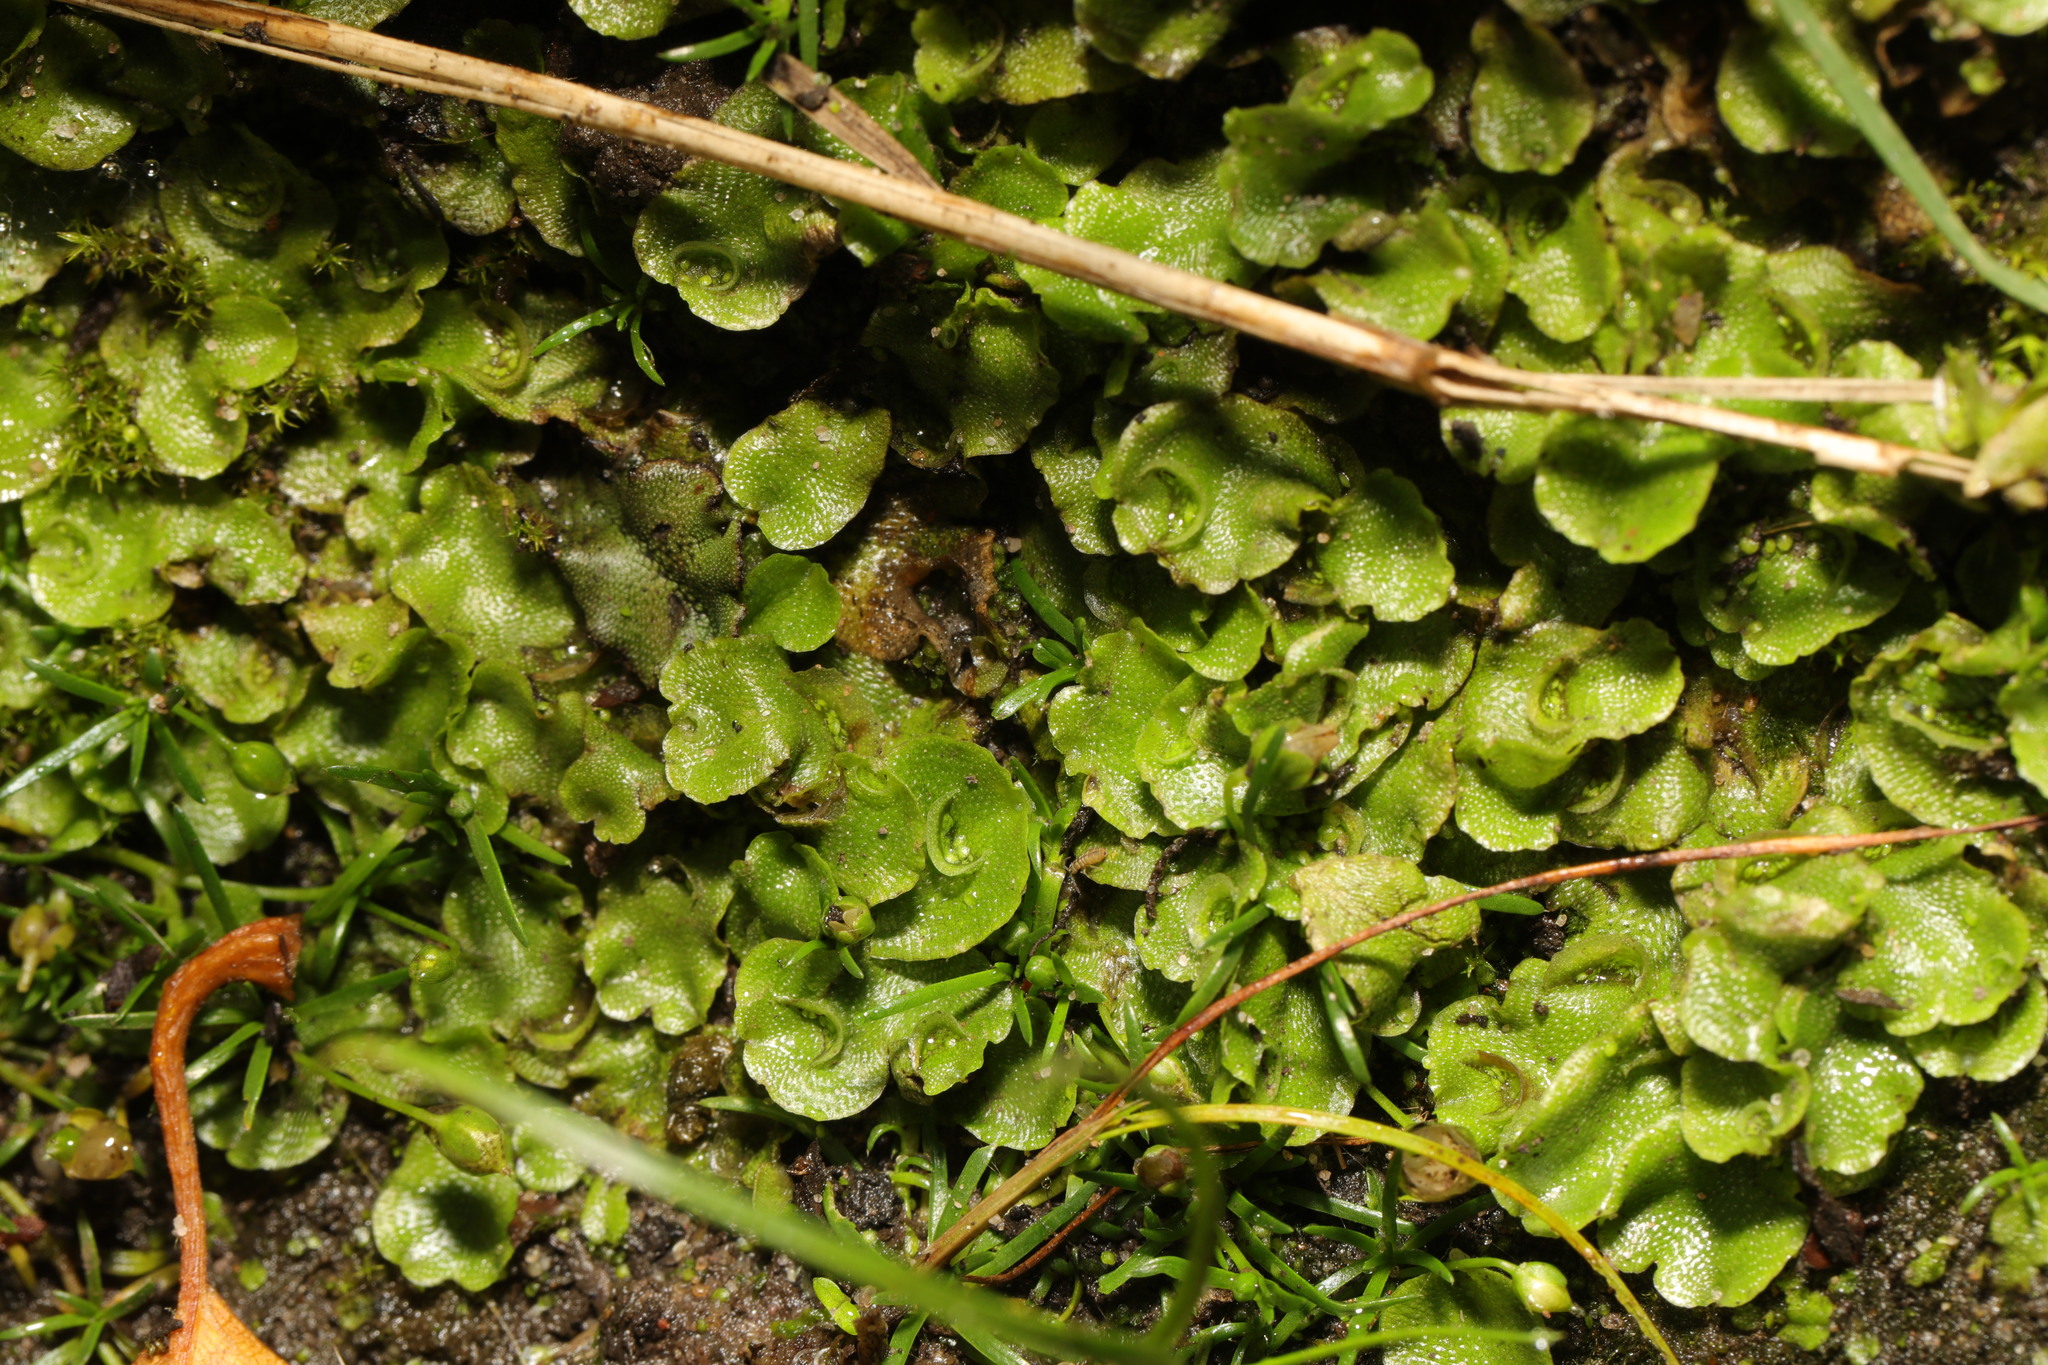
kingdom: Plantae
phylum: Marchantiophyta
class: Marchantiopsida
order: Lunulariales
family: Lunulariaceae
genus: Lunularia
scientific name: Lunularia cruciata
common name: Crescent-cup liverwort
